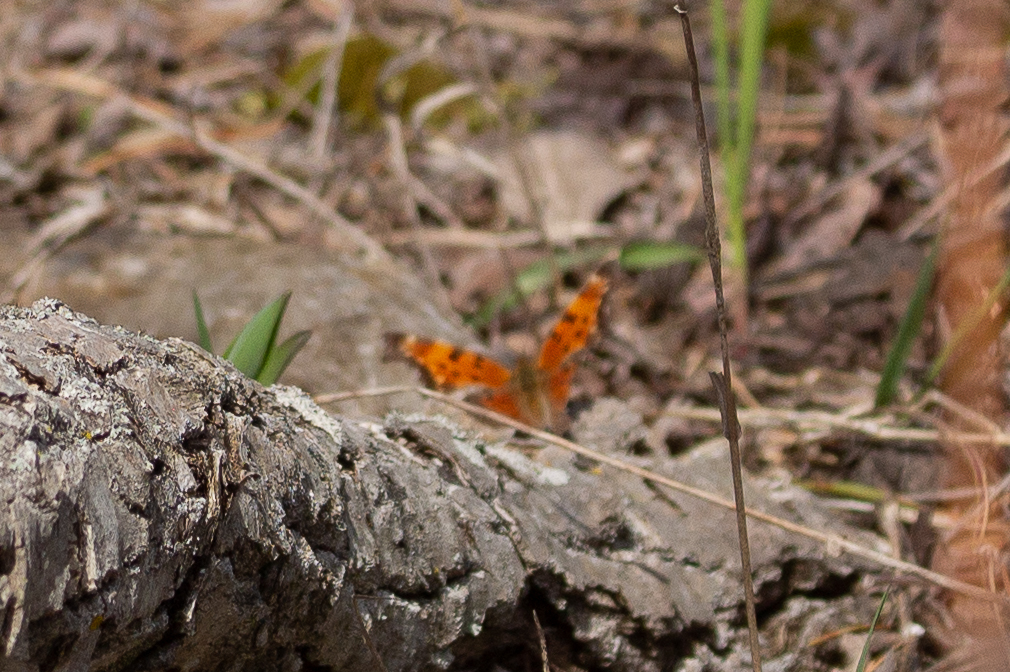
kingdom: Animalia
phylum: Arthropoda
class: Insecta
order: Lepidoptera
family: Nymphalidae
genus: Polygonia
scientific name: Polygonia progne
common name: Gray comma
